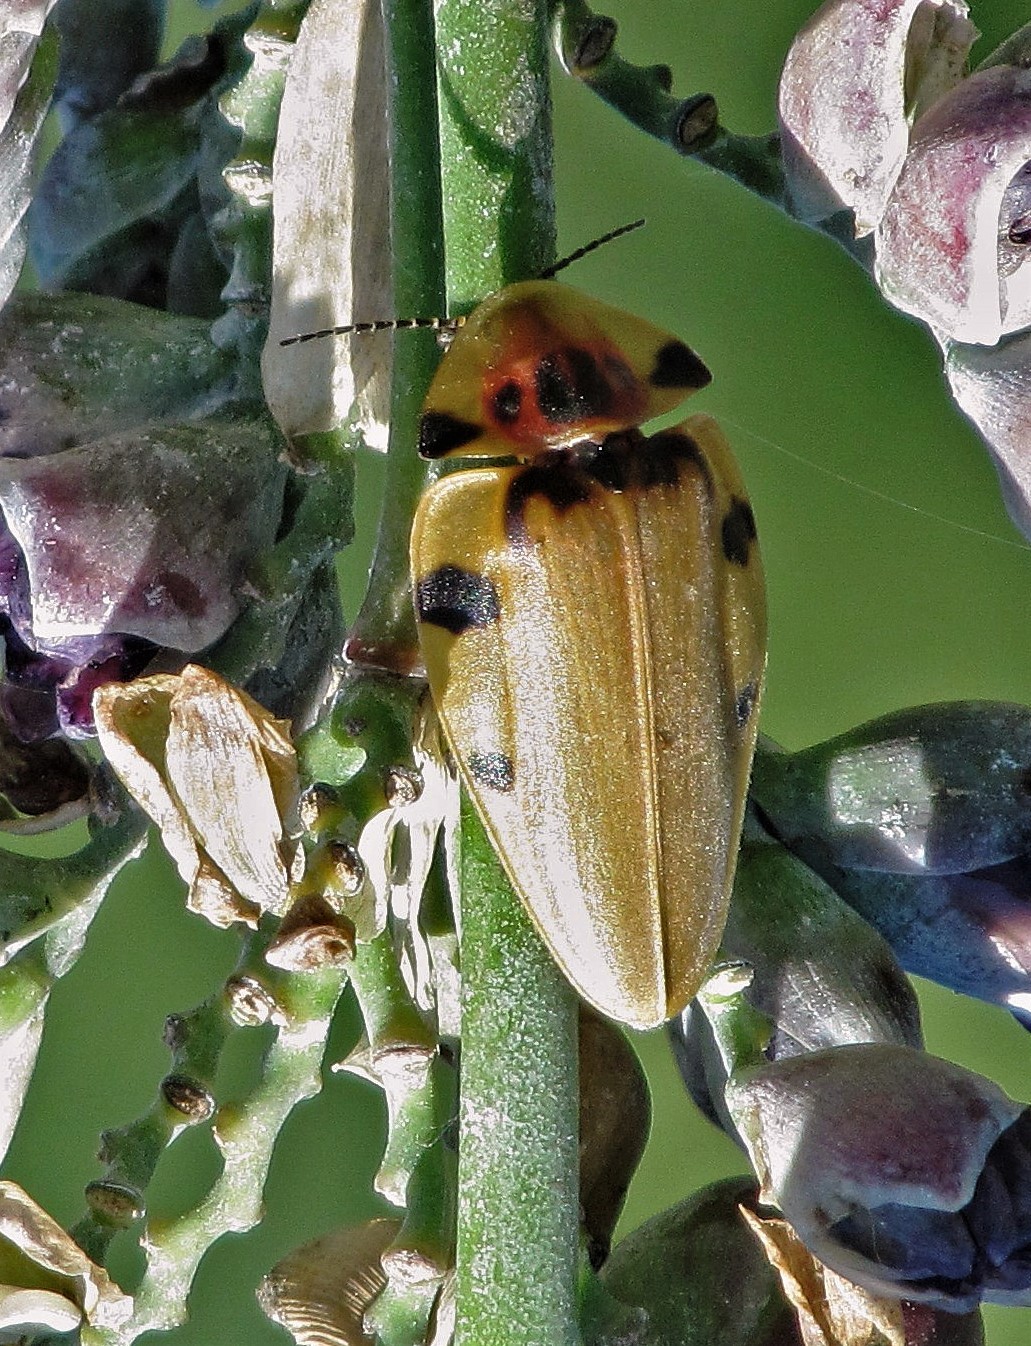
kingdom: Animalia
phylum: Arthropoda
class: Insecta
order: Coleoptera
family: Lampyridae
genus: Aspisoma
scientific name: Aspisoma sticticum
